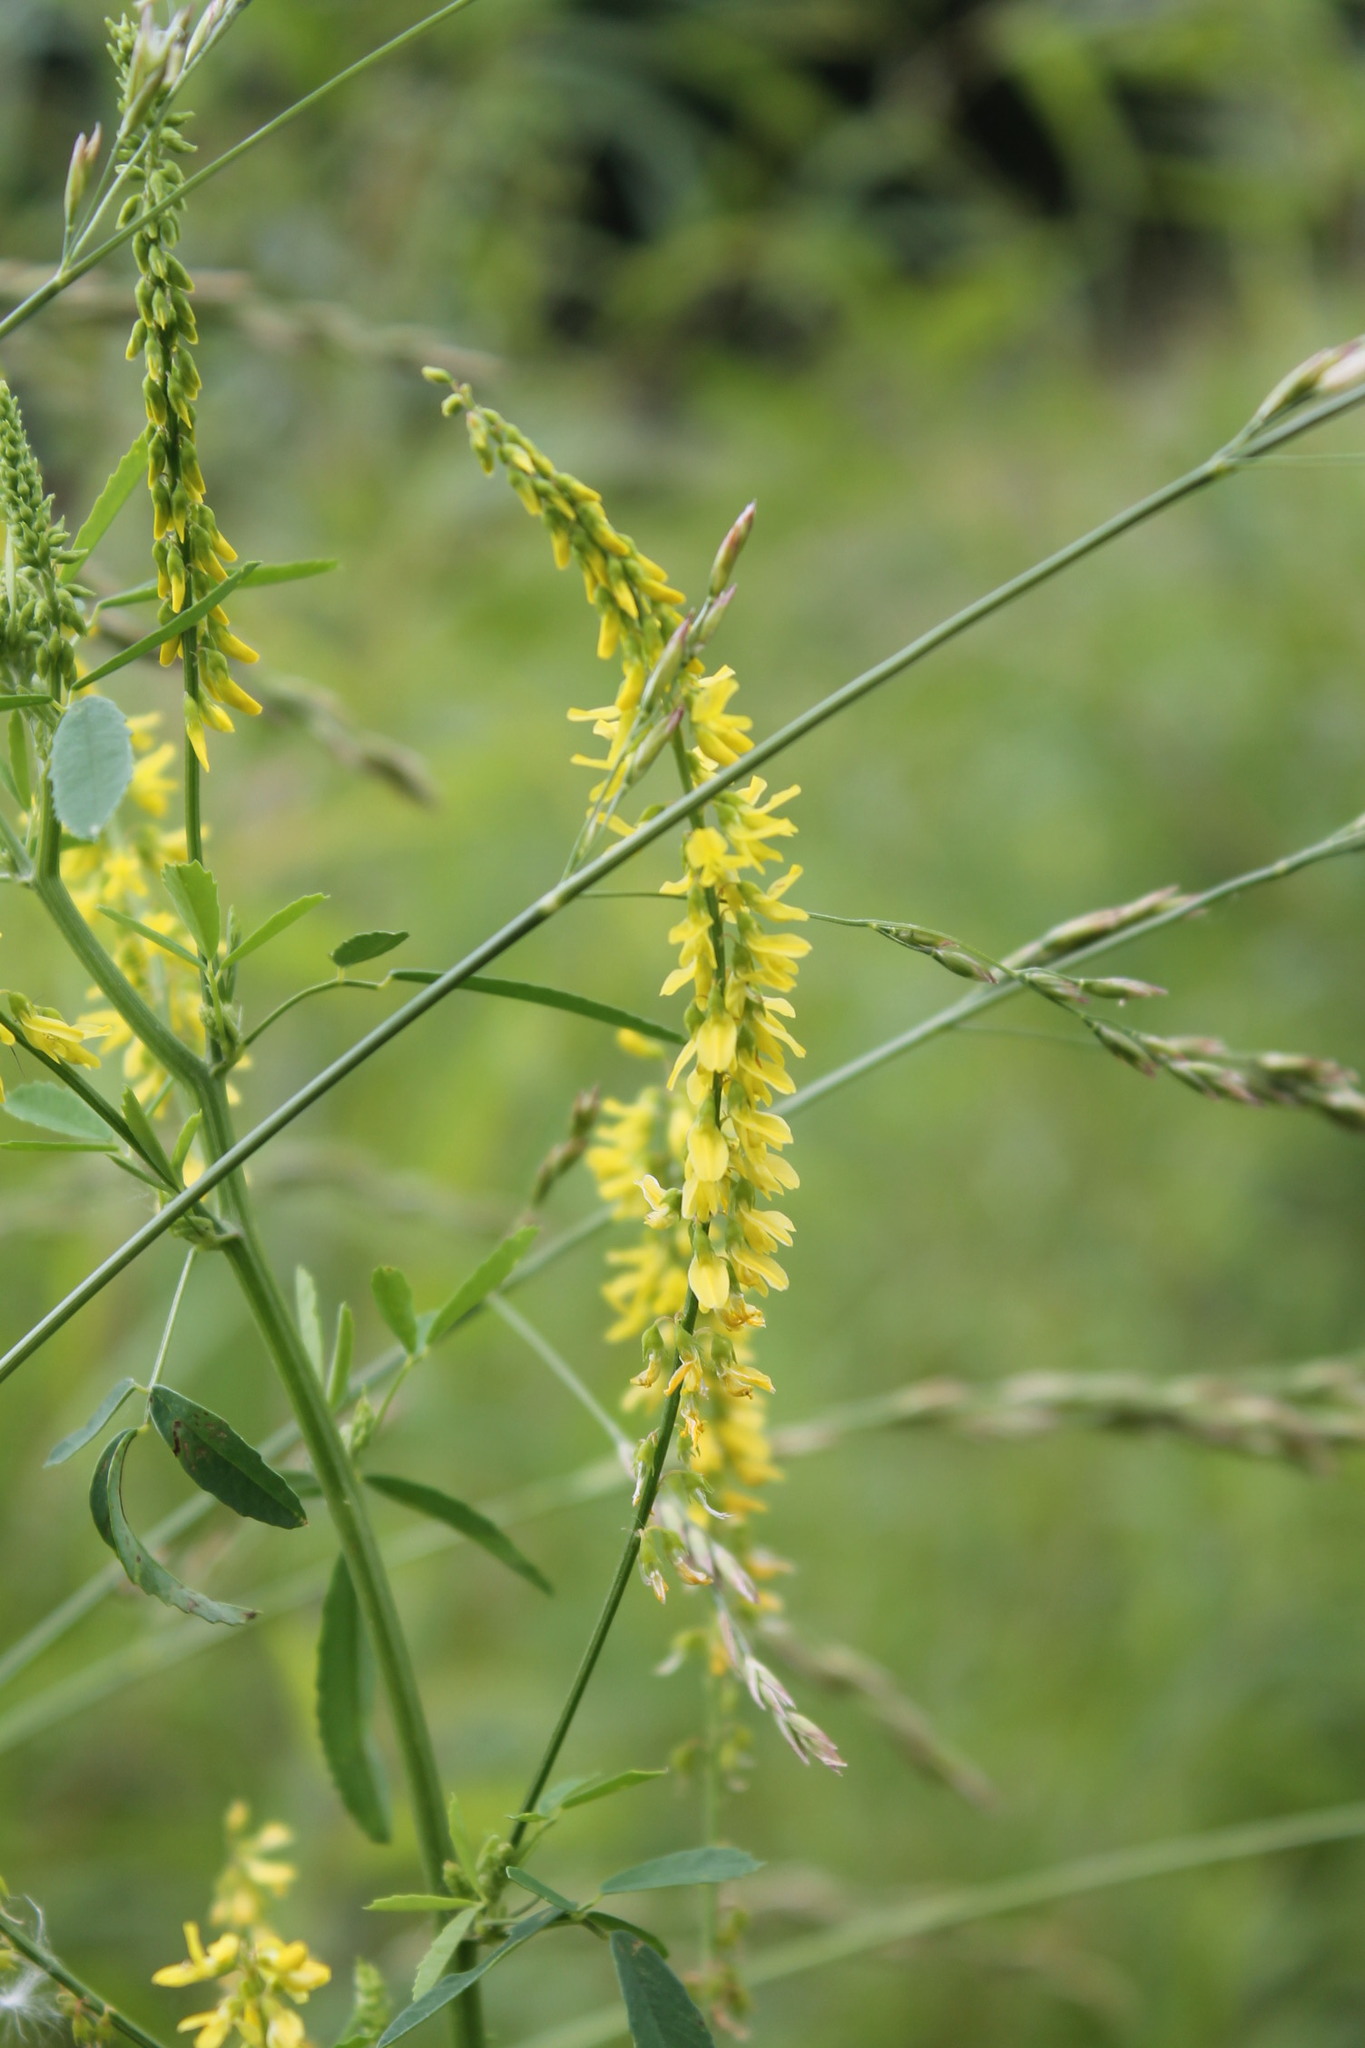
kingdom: Plantae
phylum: Tracheophyta
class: Magnoliopsida
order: Fabales
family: Fabaceae
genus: Melilotus
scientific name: Melilotus officinalis
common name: Sweetclover
